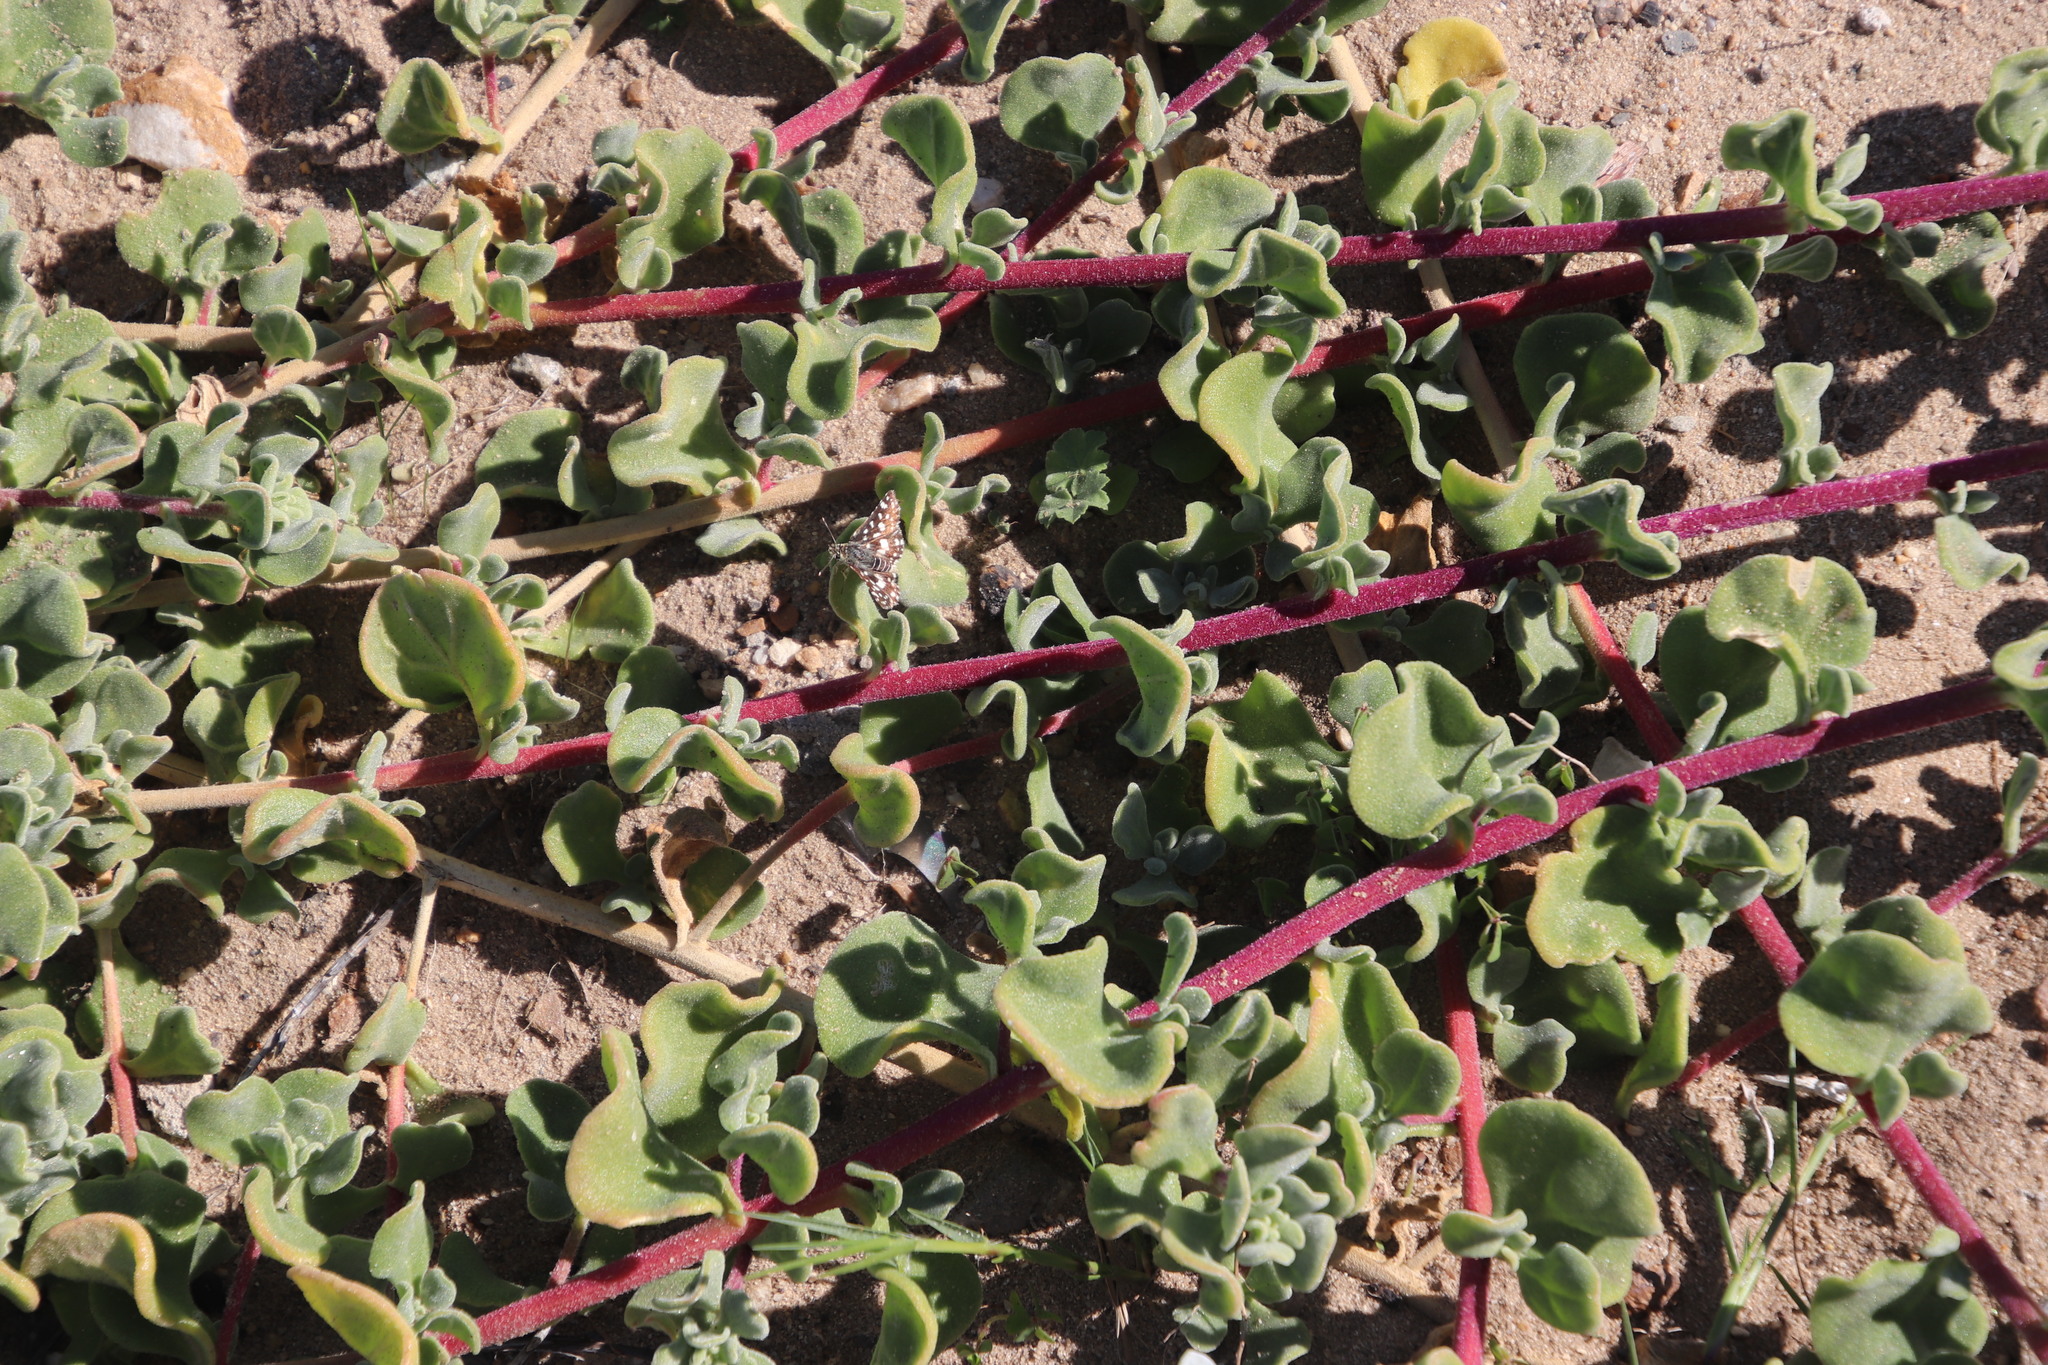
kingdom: Plantae
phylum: Tracheophyta
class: Magnoliopsida
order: Caryophyllales
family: Aizoaceae
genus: Tetragonia
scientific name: Tetragonia decumbens
